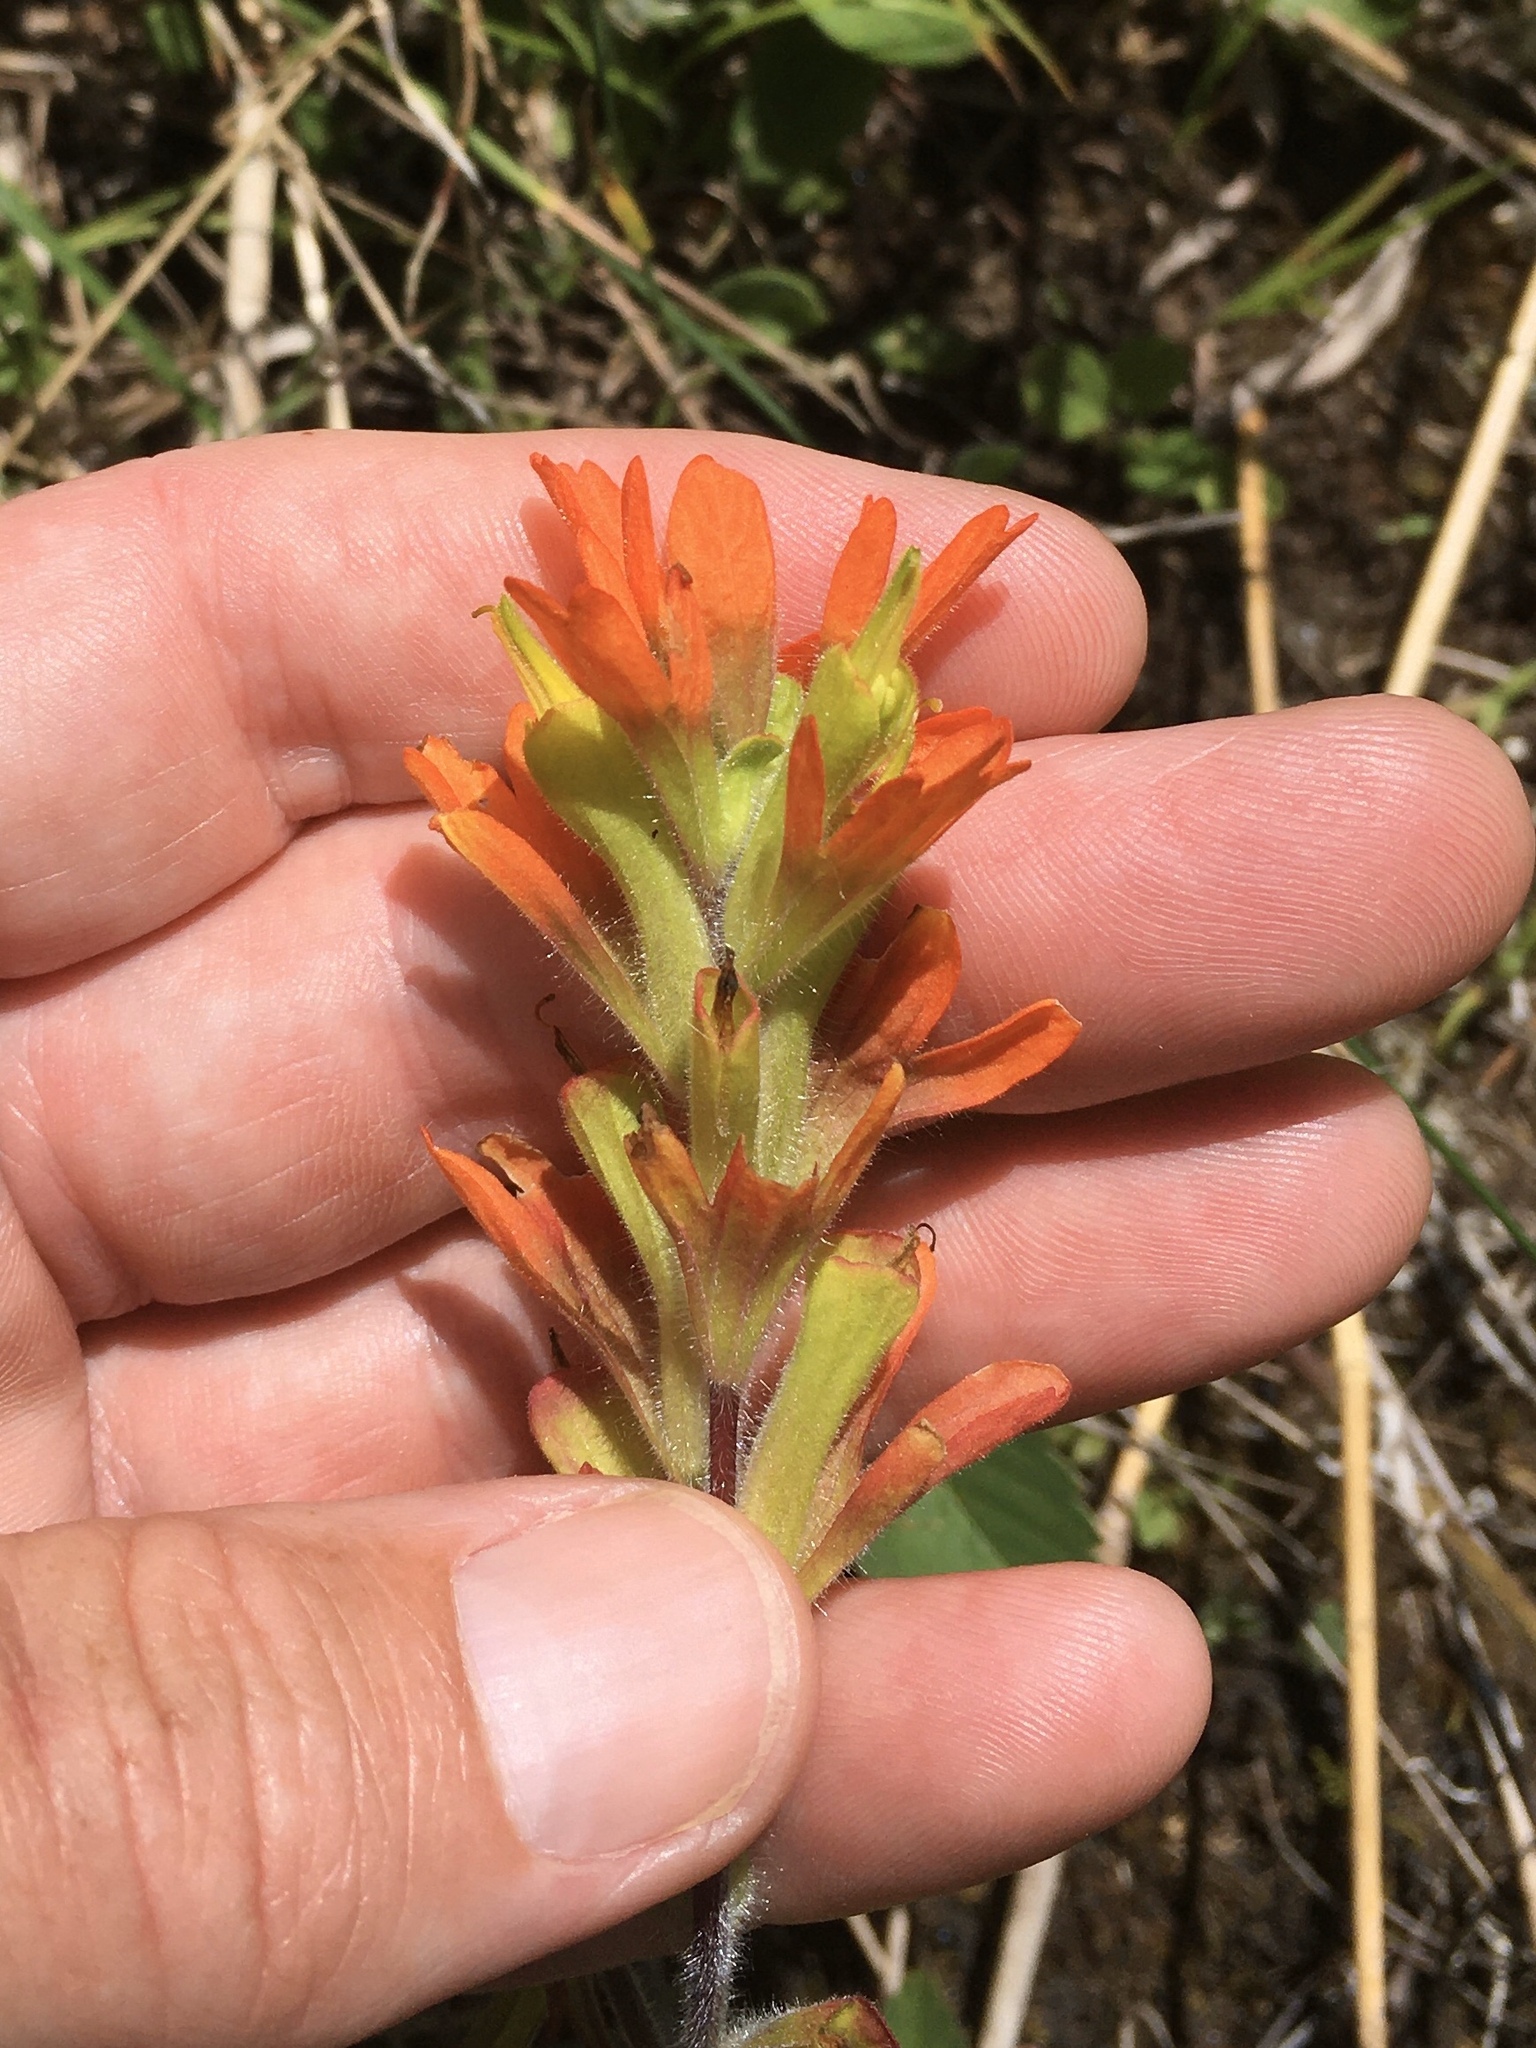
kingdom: Plantae
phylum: Tracheophyta
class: Magnoliopsida
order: Lamiales
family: Orobanchaceae
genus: Castilleja
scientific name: Castilleja coccinea
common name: Scarlet paintbrush
